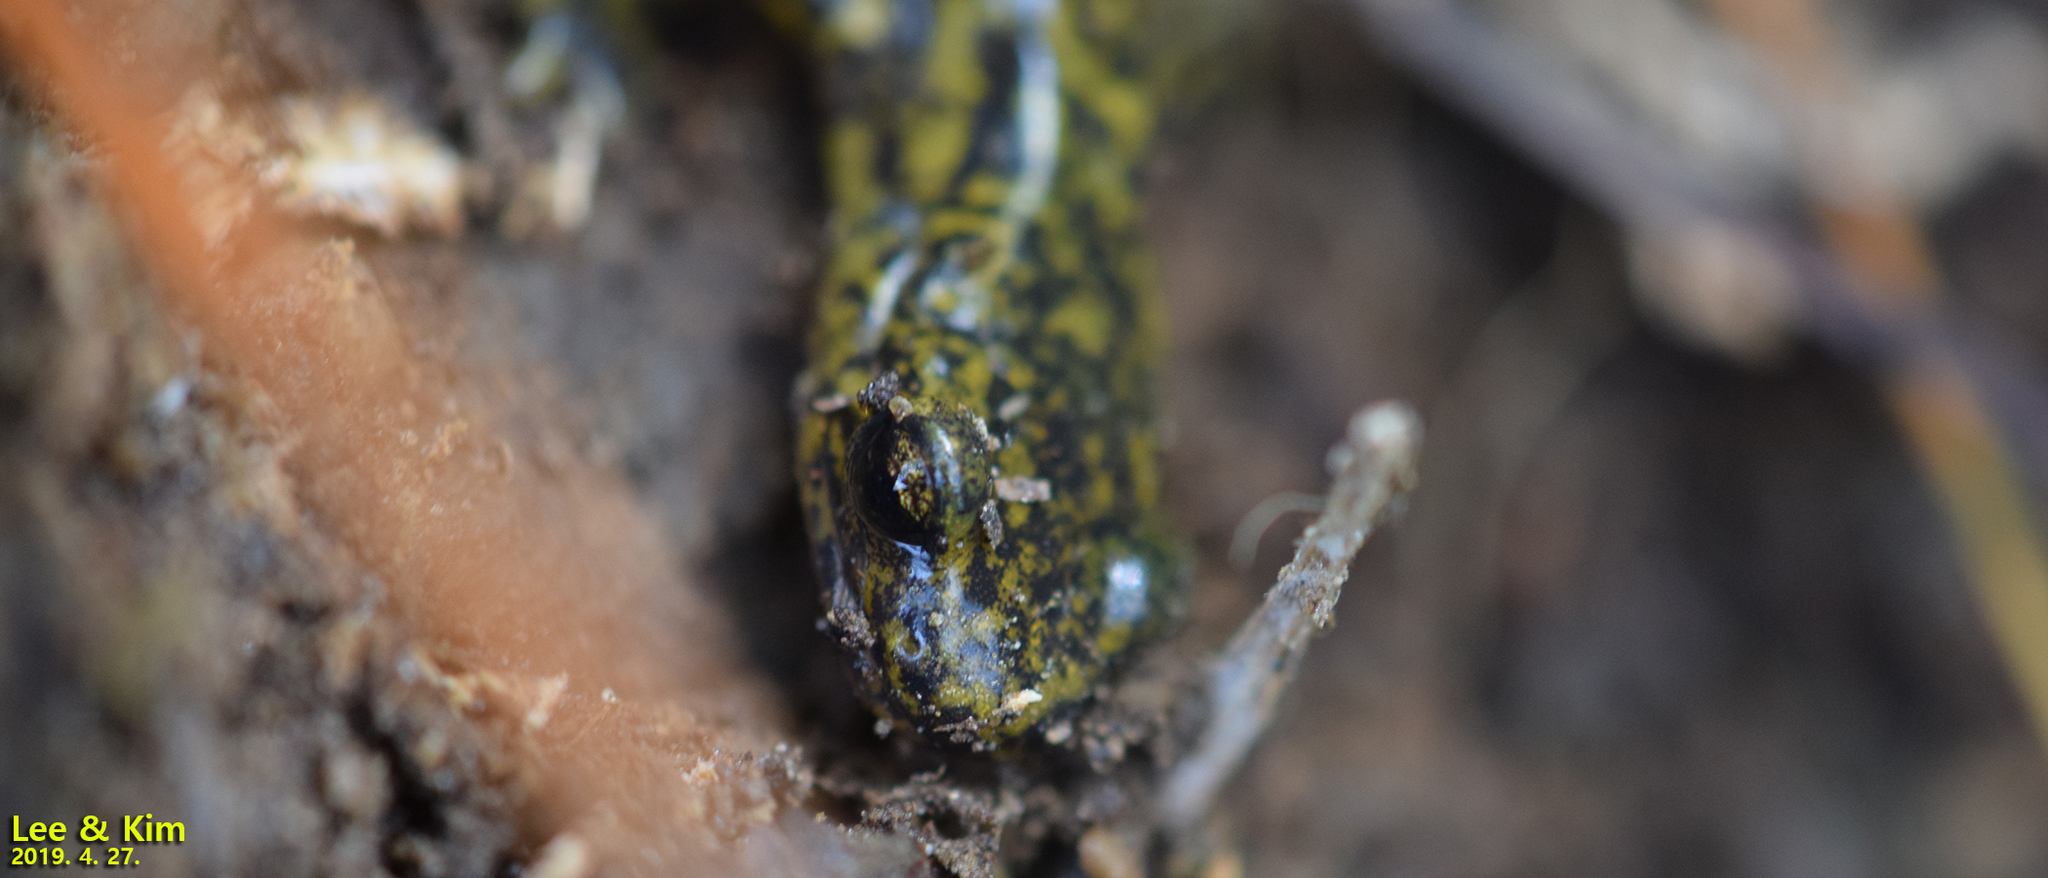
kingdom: Animalia
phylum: Chordata
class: Amphibia
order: Caudata
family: Hynobiidae
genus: Onychodactylus
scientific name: Onychodactylus koreanus
